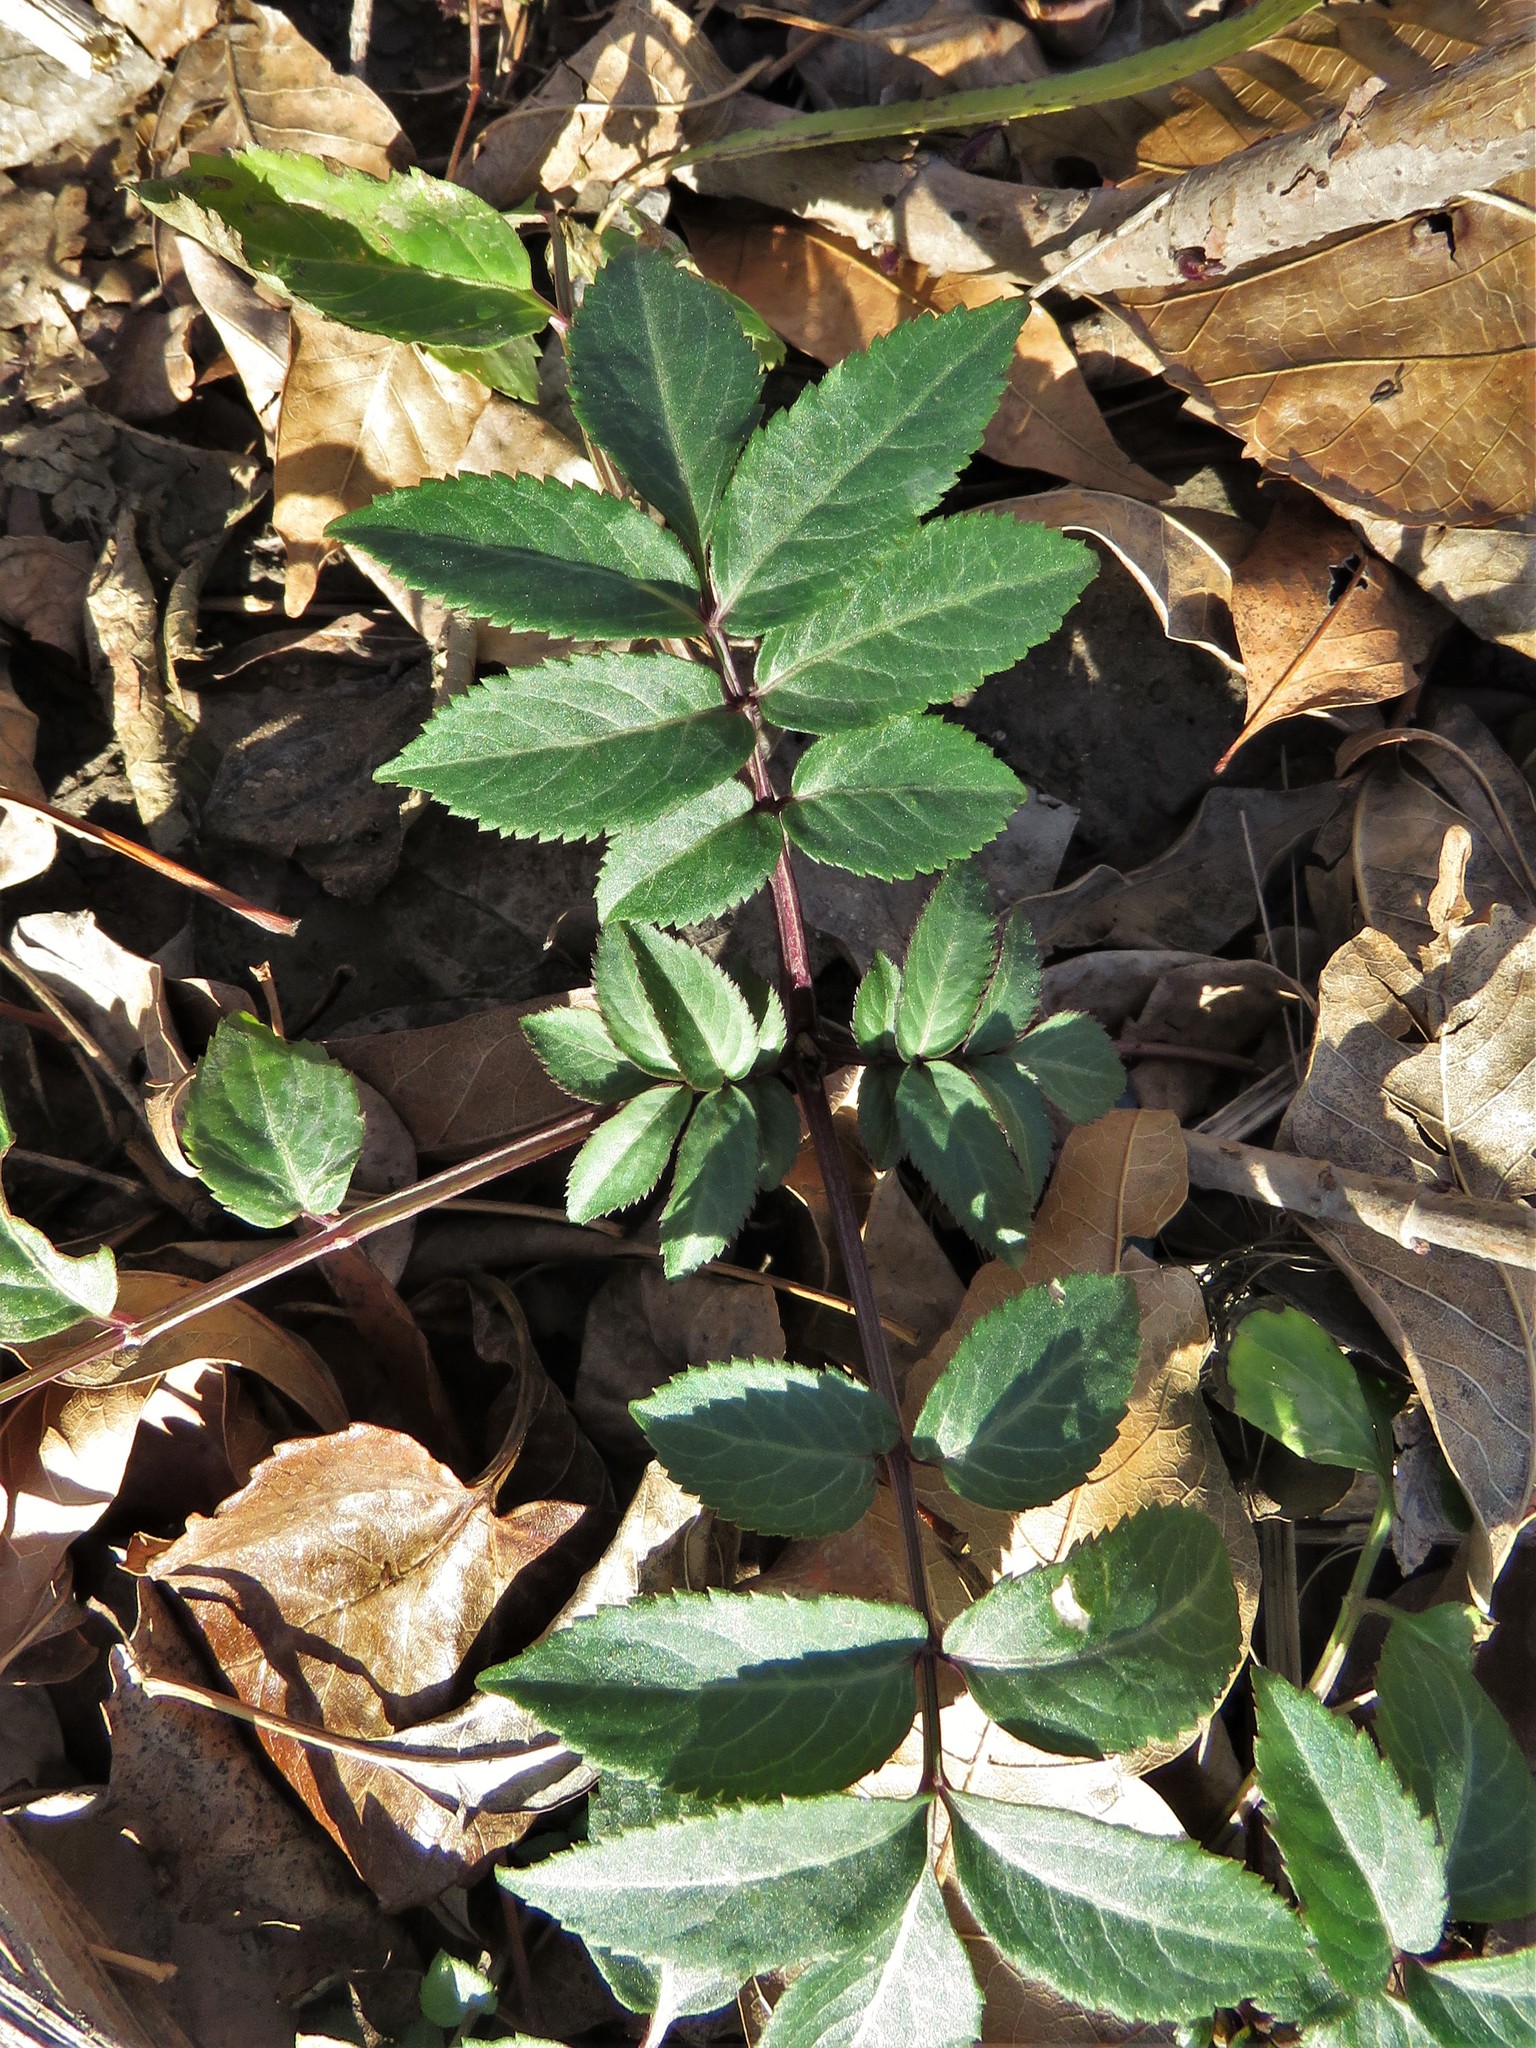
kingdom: Plantae
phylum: Tracheophyta
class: Magnoliopsida
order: Dipsacales
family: Viburnaceae
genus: Sambucus
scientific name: Sambucus canadensis
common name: American elder
